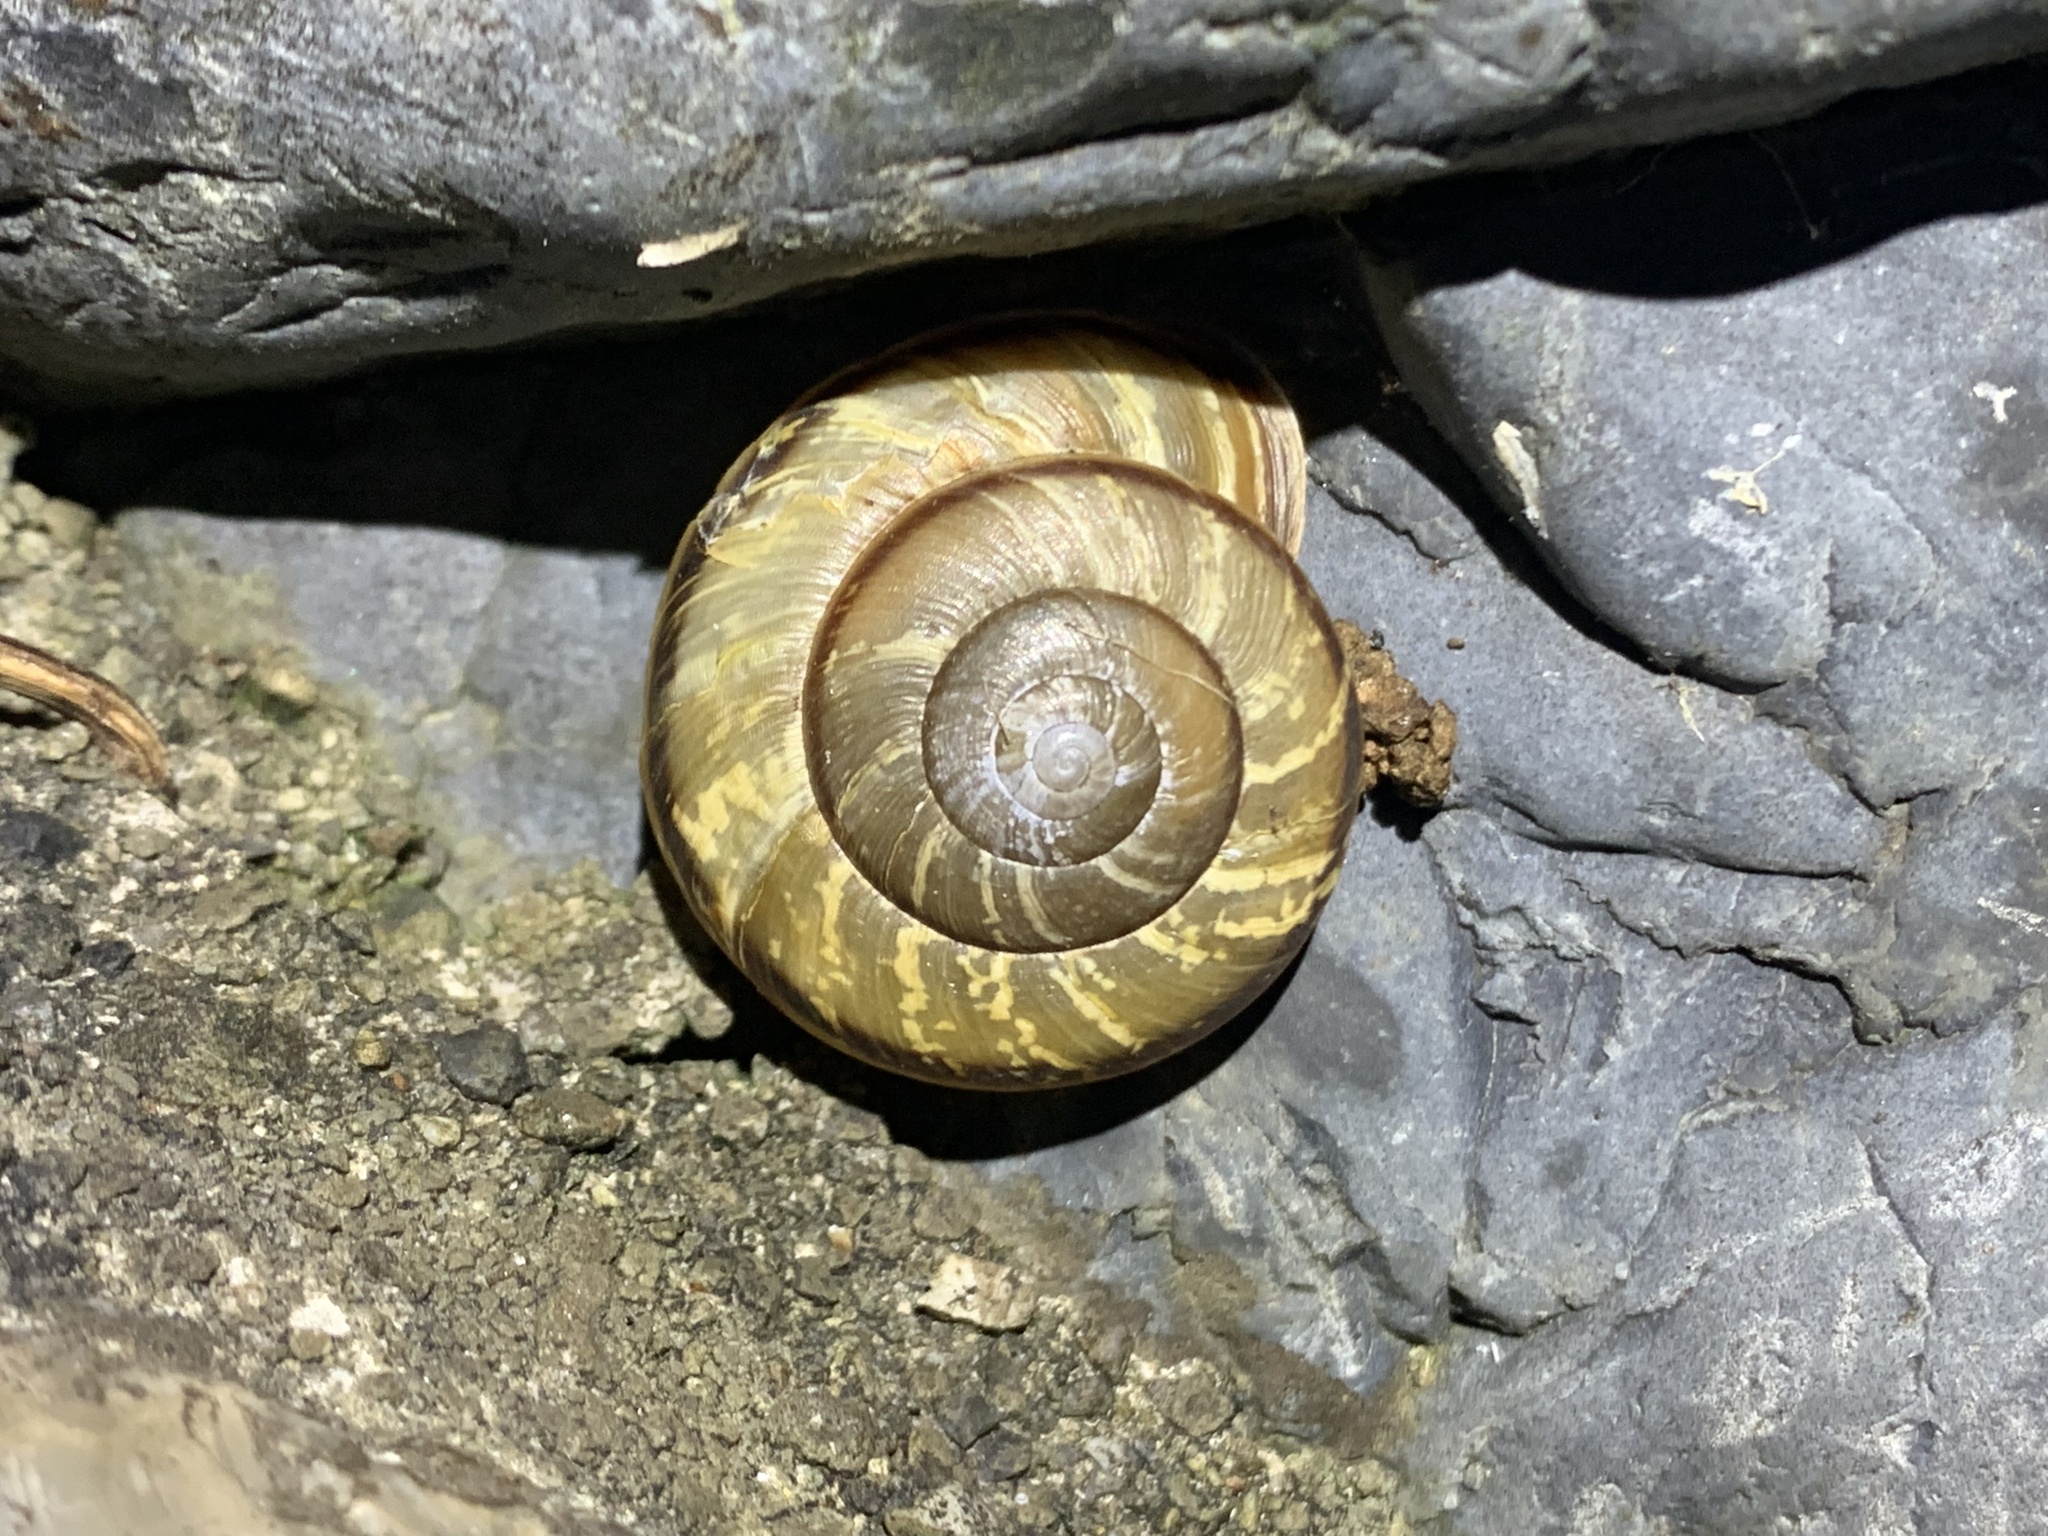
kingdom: Animalia
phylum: Mollusca
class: Gastropoda
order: Stylommatophora
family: Camaenidae
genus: Euhadra
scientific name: Euhadra sandai
